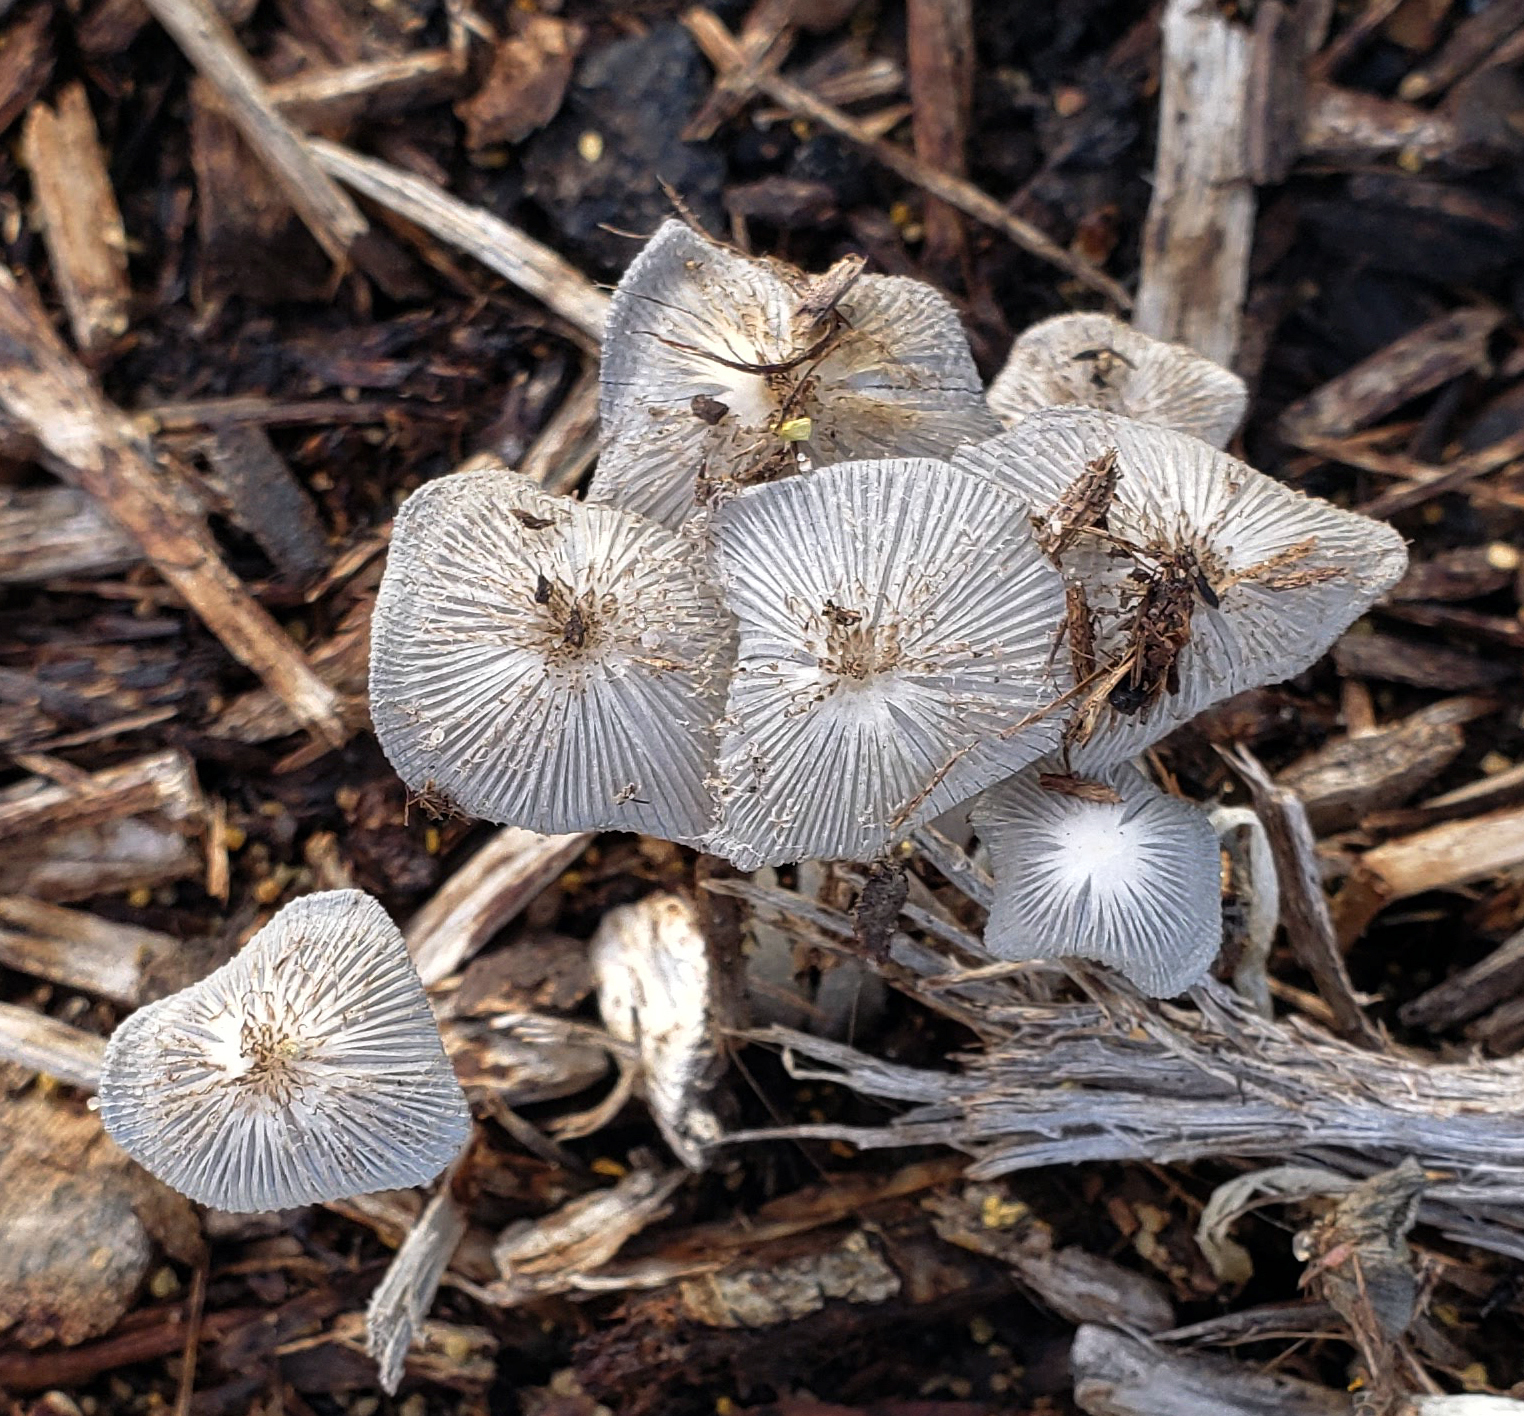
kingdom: Fungi
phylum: Basidiomycota
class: Agaricomycetes
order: Agaricales
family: Psathyrellaceae
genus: Parasola
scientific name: Parasola plicatilis
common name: Pleated inkcap
